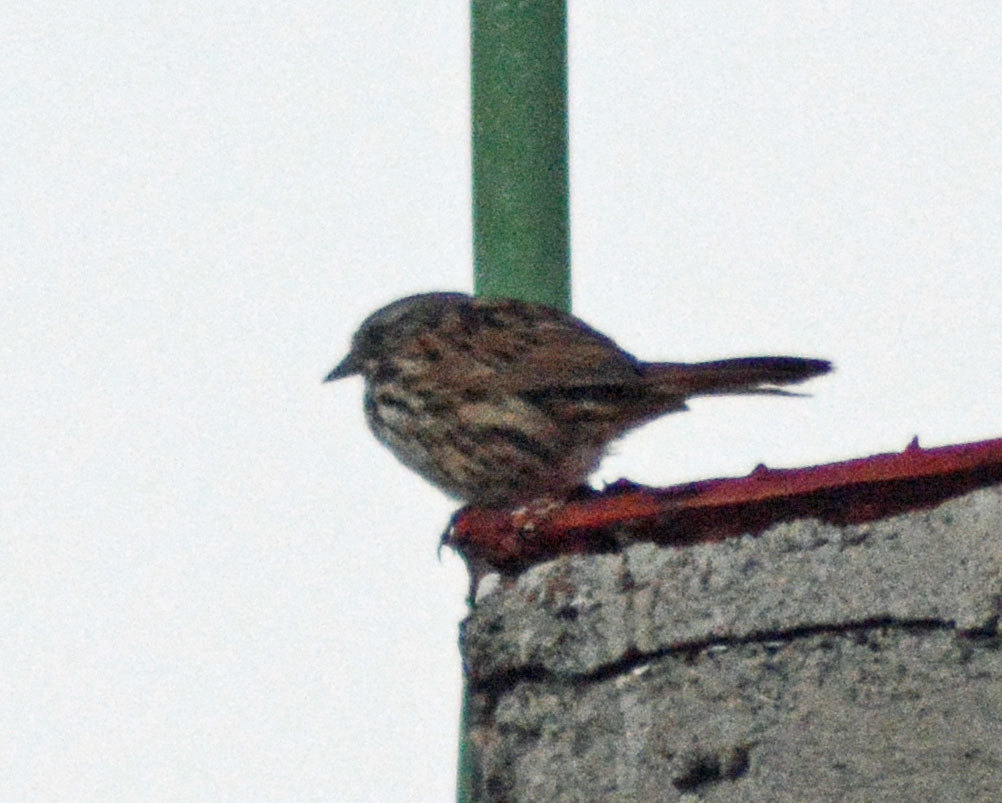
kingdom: Animalia
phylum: Chordata
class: Aves
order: Passeriformes
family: Passerellidae
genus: Melospiza
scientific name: Melospiza melodia
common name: Song sparrow
